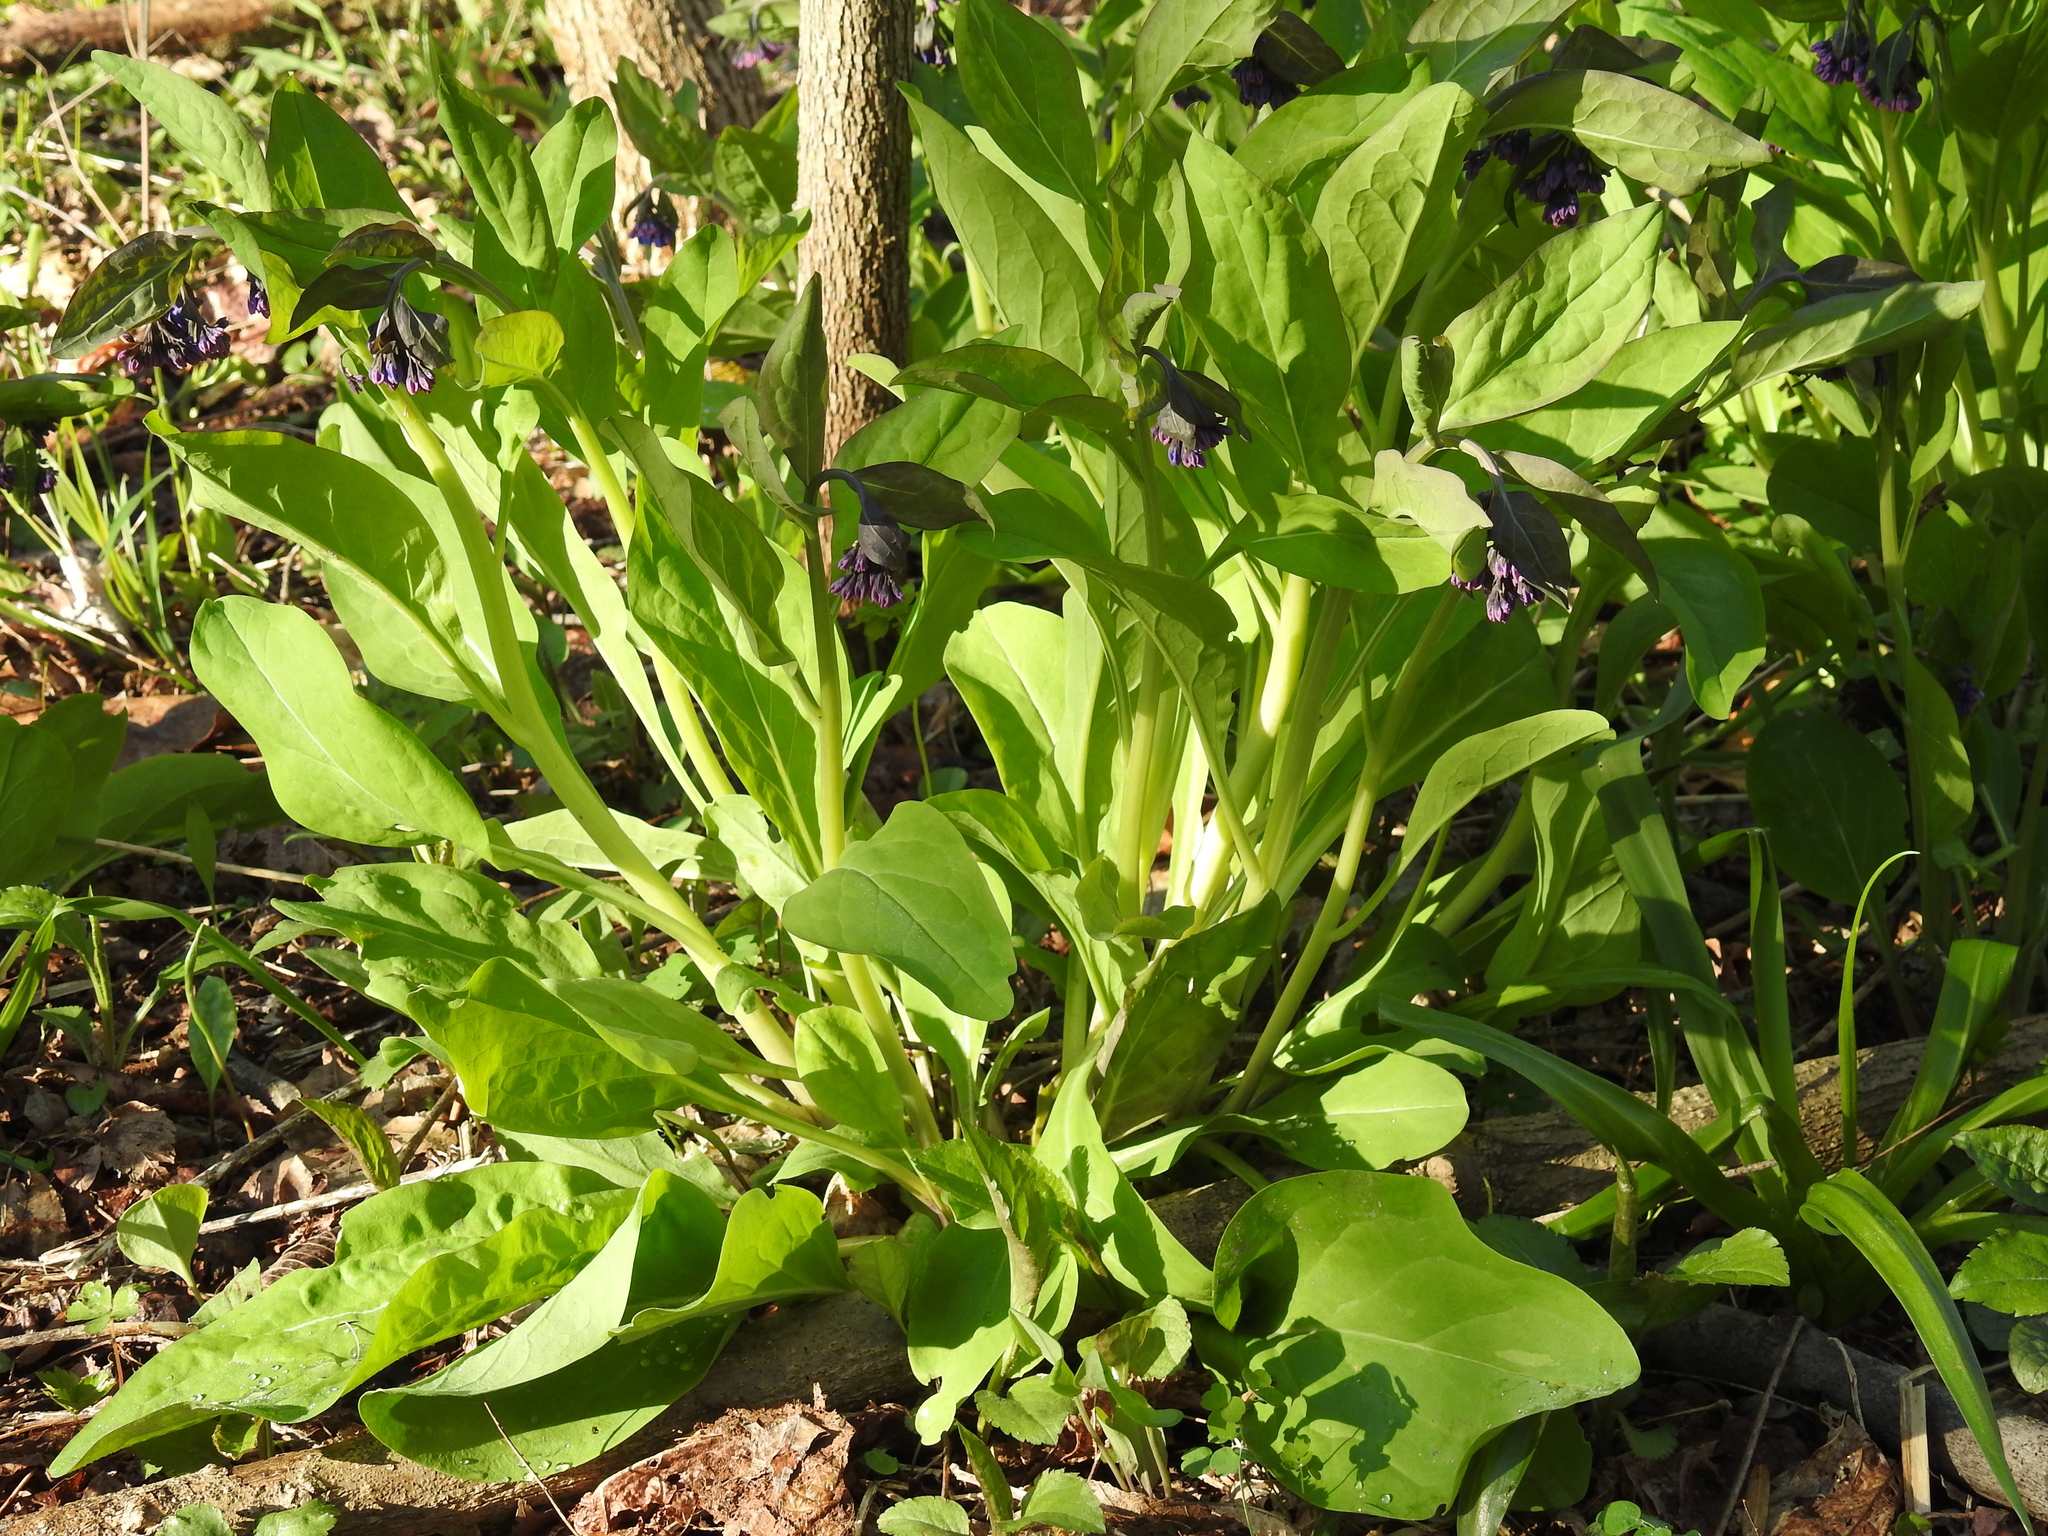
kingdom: Plantae
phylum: Tracheophyta
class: Magnoliopsida
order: Boraginales
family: Boraginaceae
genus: Mertensia
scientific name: Mertensia virginica
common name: Virginia bluebells
